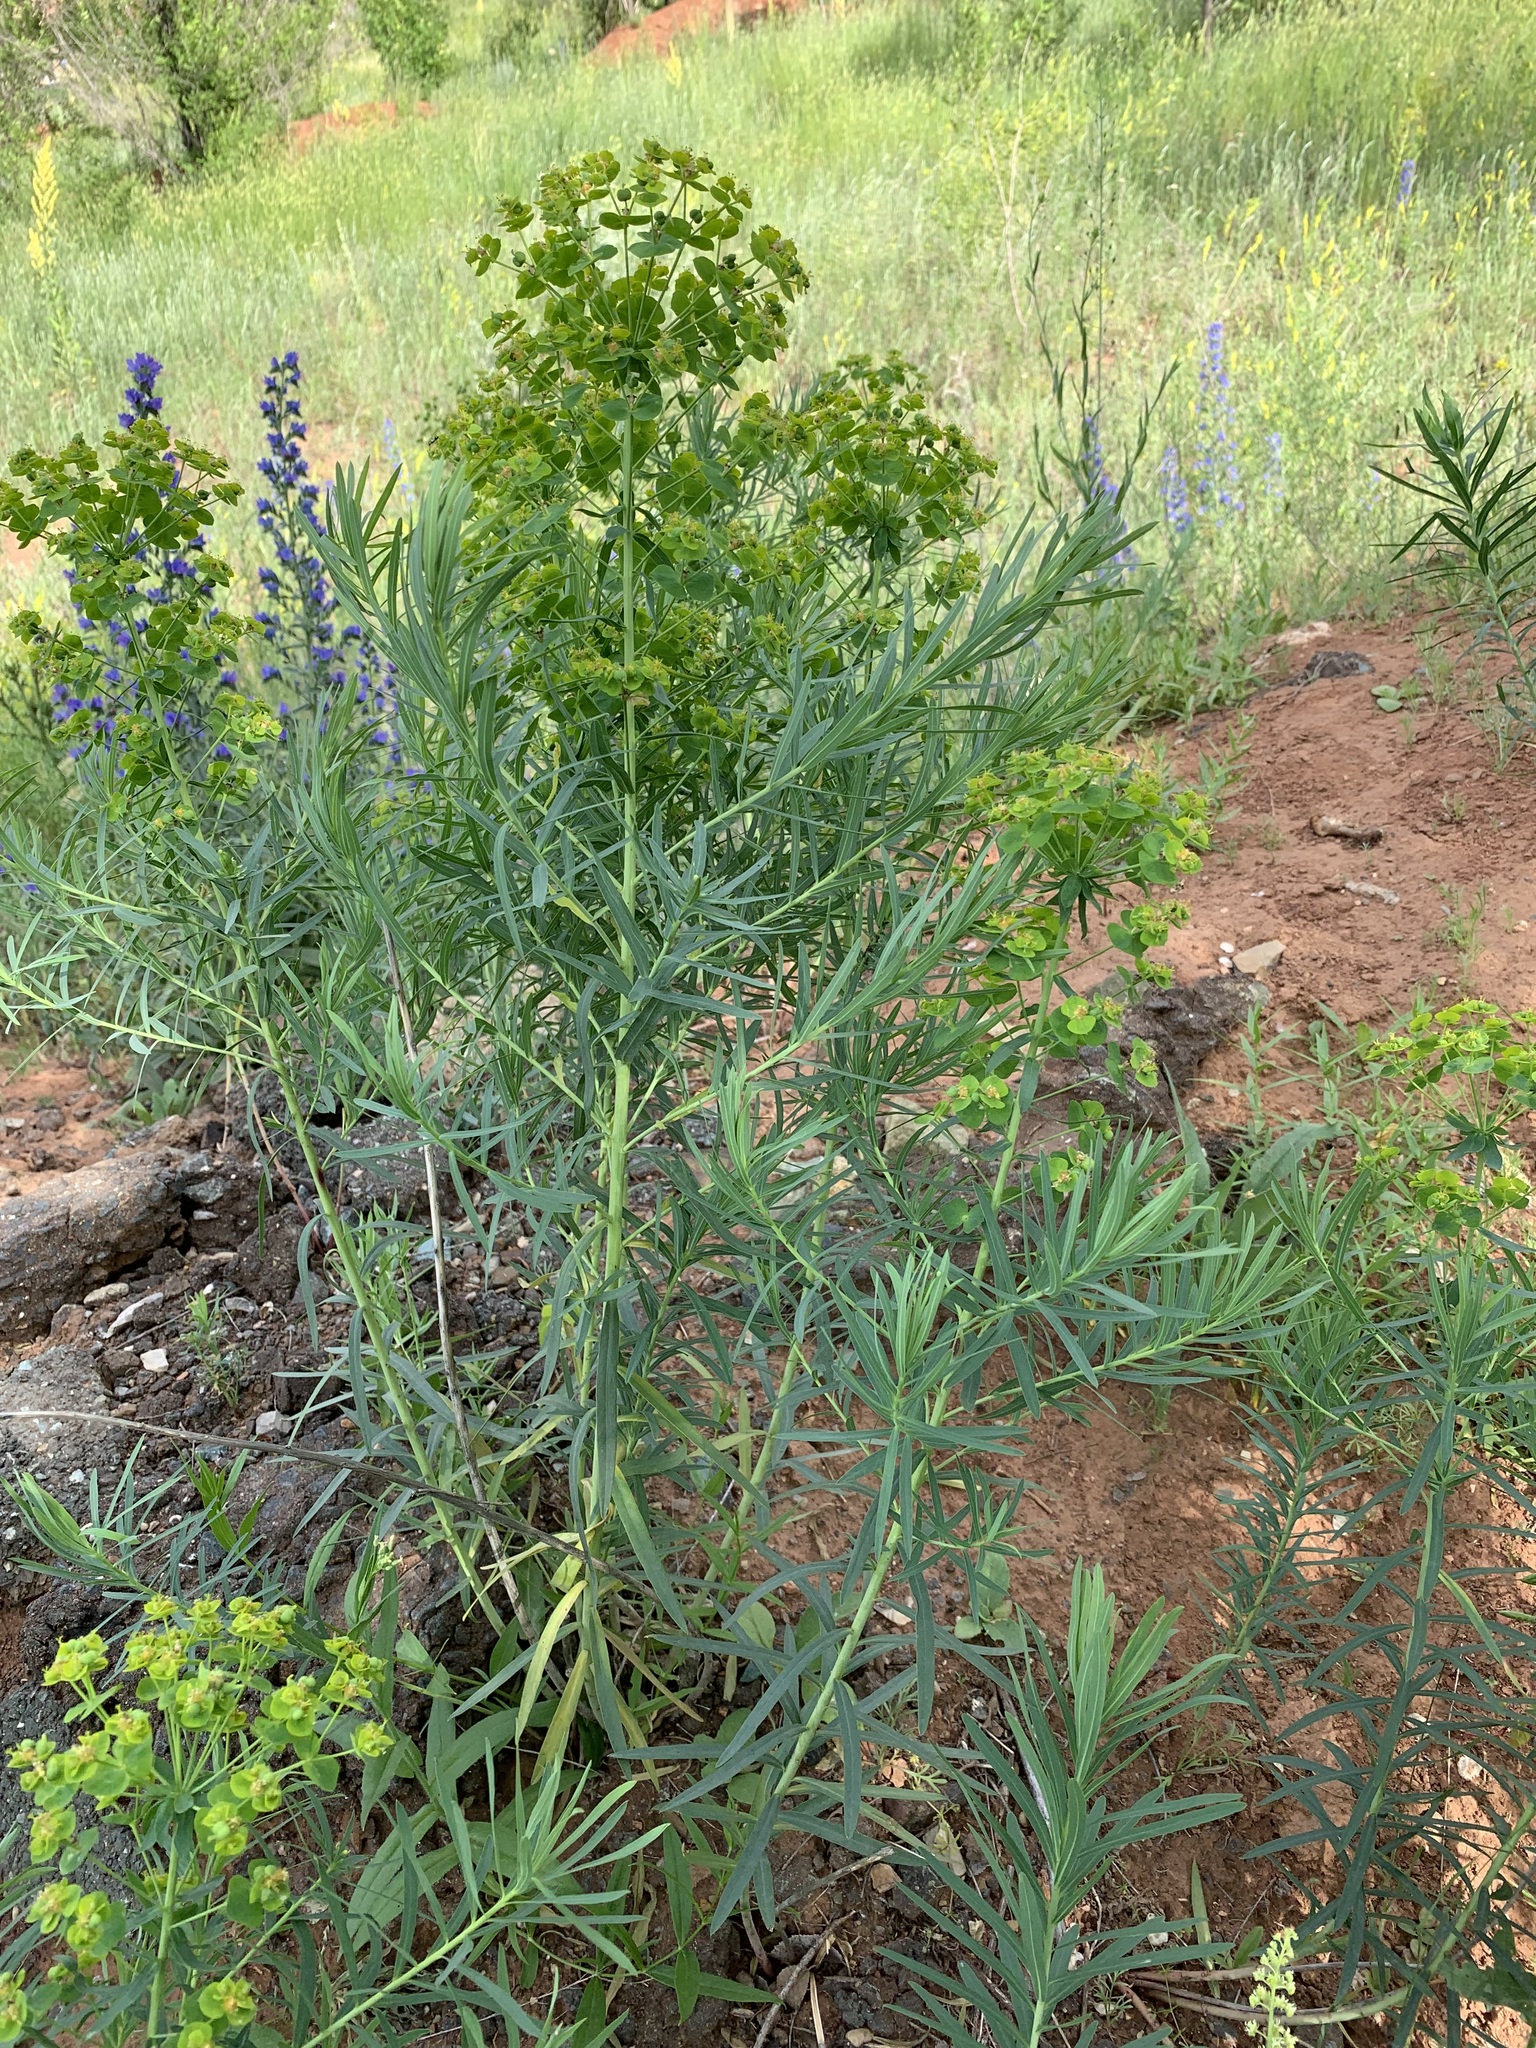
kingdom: Plantae
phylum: Tracheophyta
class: Magnoliopsida
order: Malpighiales
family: Euphorbiaceae
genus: Euphorbia
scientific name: Euphorbia virgata
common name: Leafy spurge
